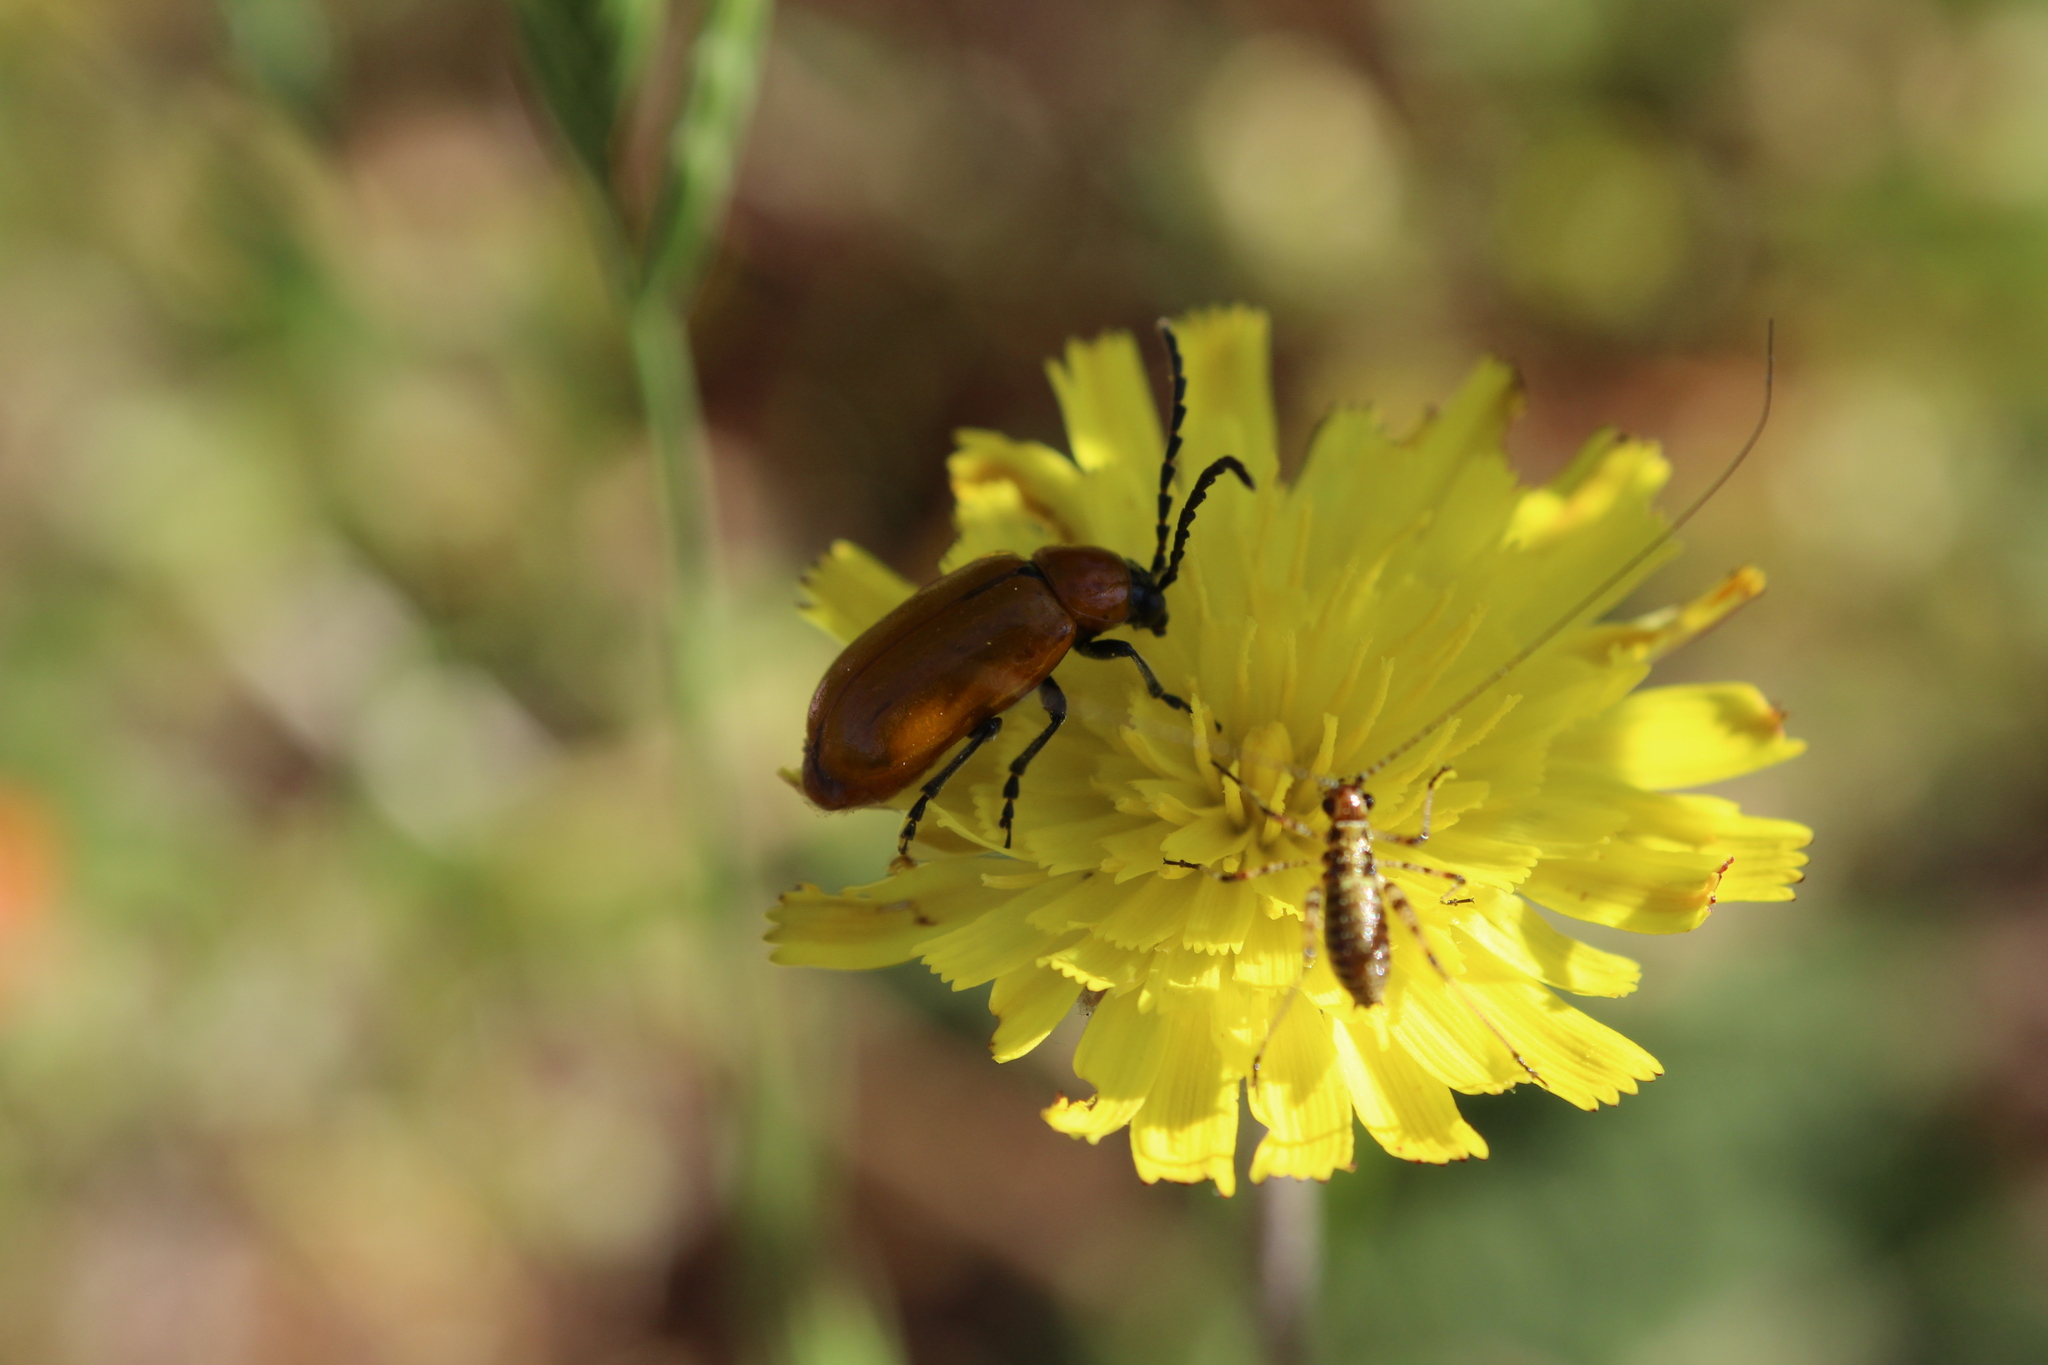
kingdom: Animalia
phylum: Arthropoda
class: Insecta
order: Coleoptera
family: Chrysomelidae
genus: Exosoma
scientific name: Exosoma lusitanicum
